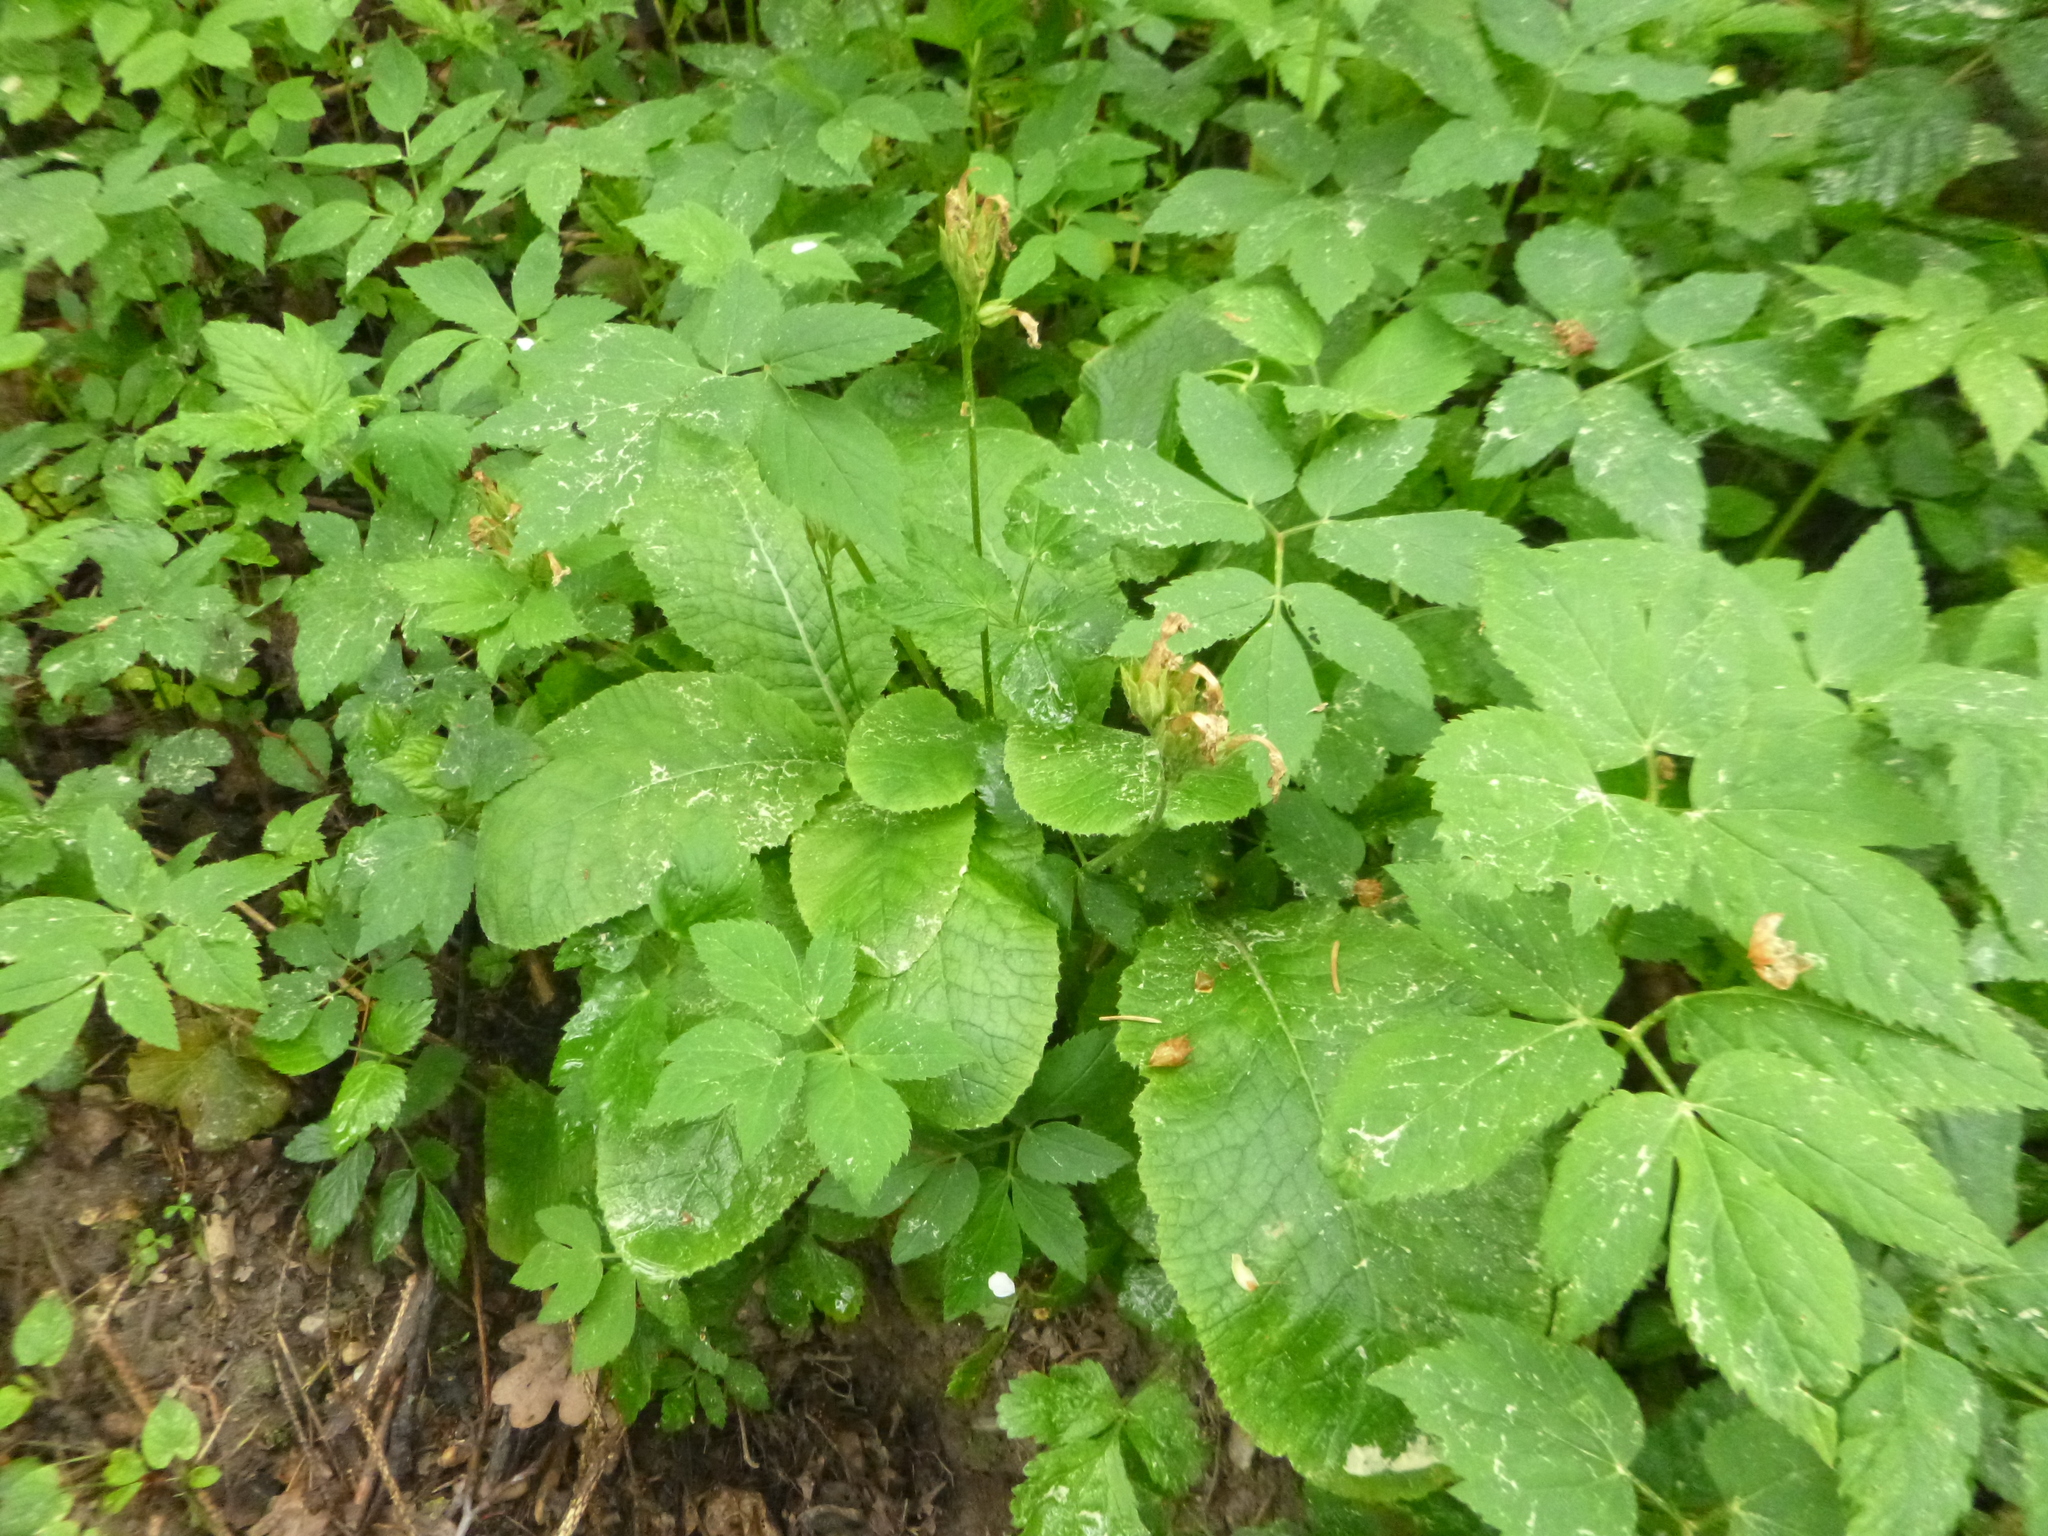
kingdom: Plantae
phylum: Tracheophyta
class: Magnoliopsida
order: Ericales
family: Primulaceae
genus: Primula
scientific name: Primula elatior
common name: Oxlip
